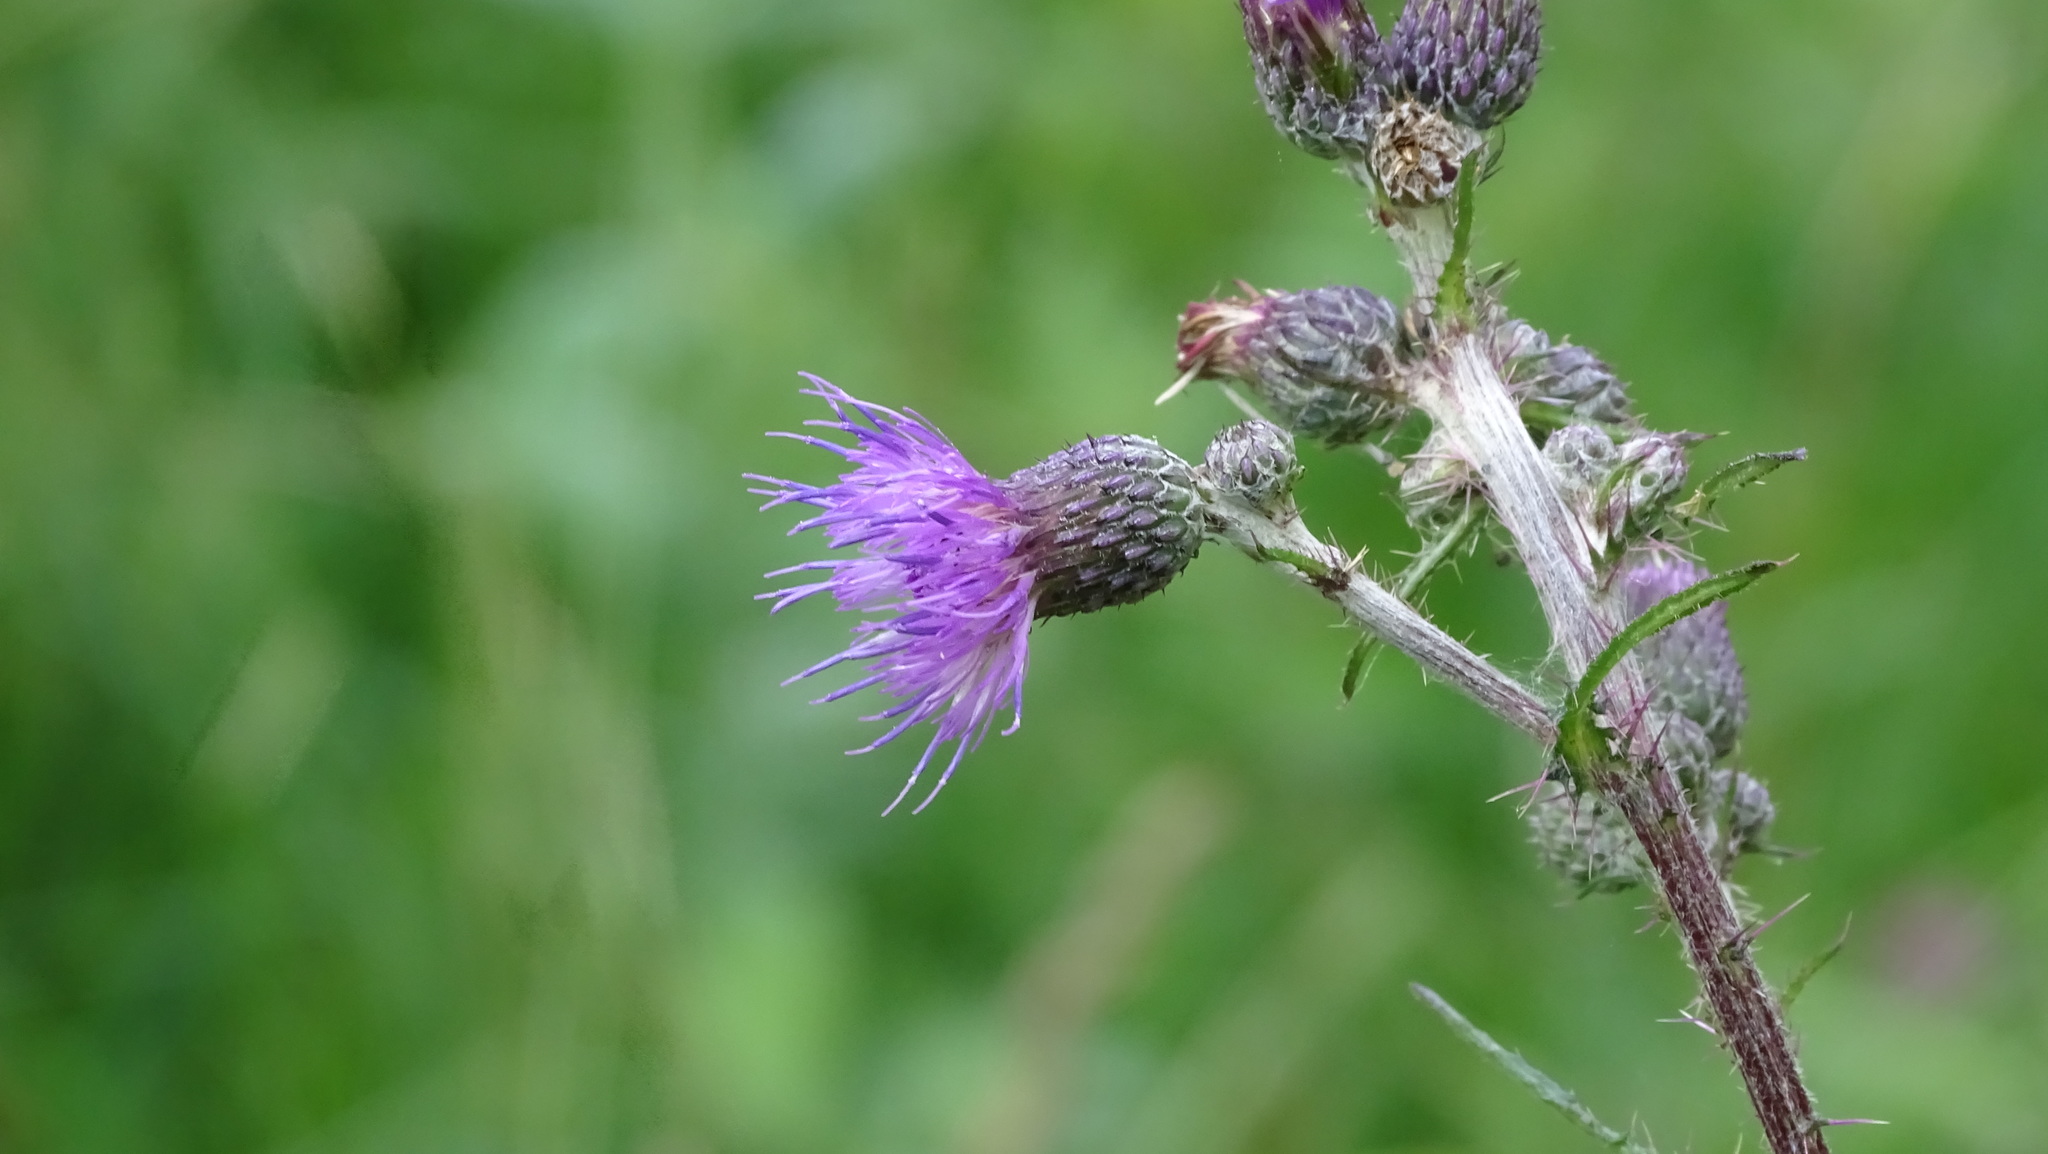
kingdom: Plantae
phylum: Tracheophyta
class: Magnoliopsida
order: Asterales
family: Asteraceae
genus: Cirsium
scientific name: Cirsium palustre
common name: Marsh thistle
